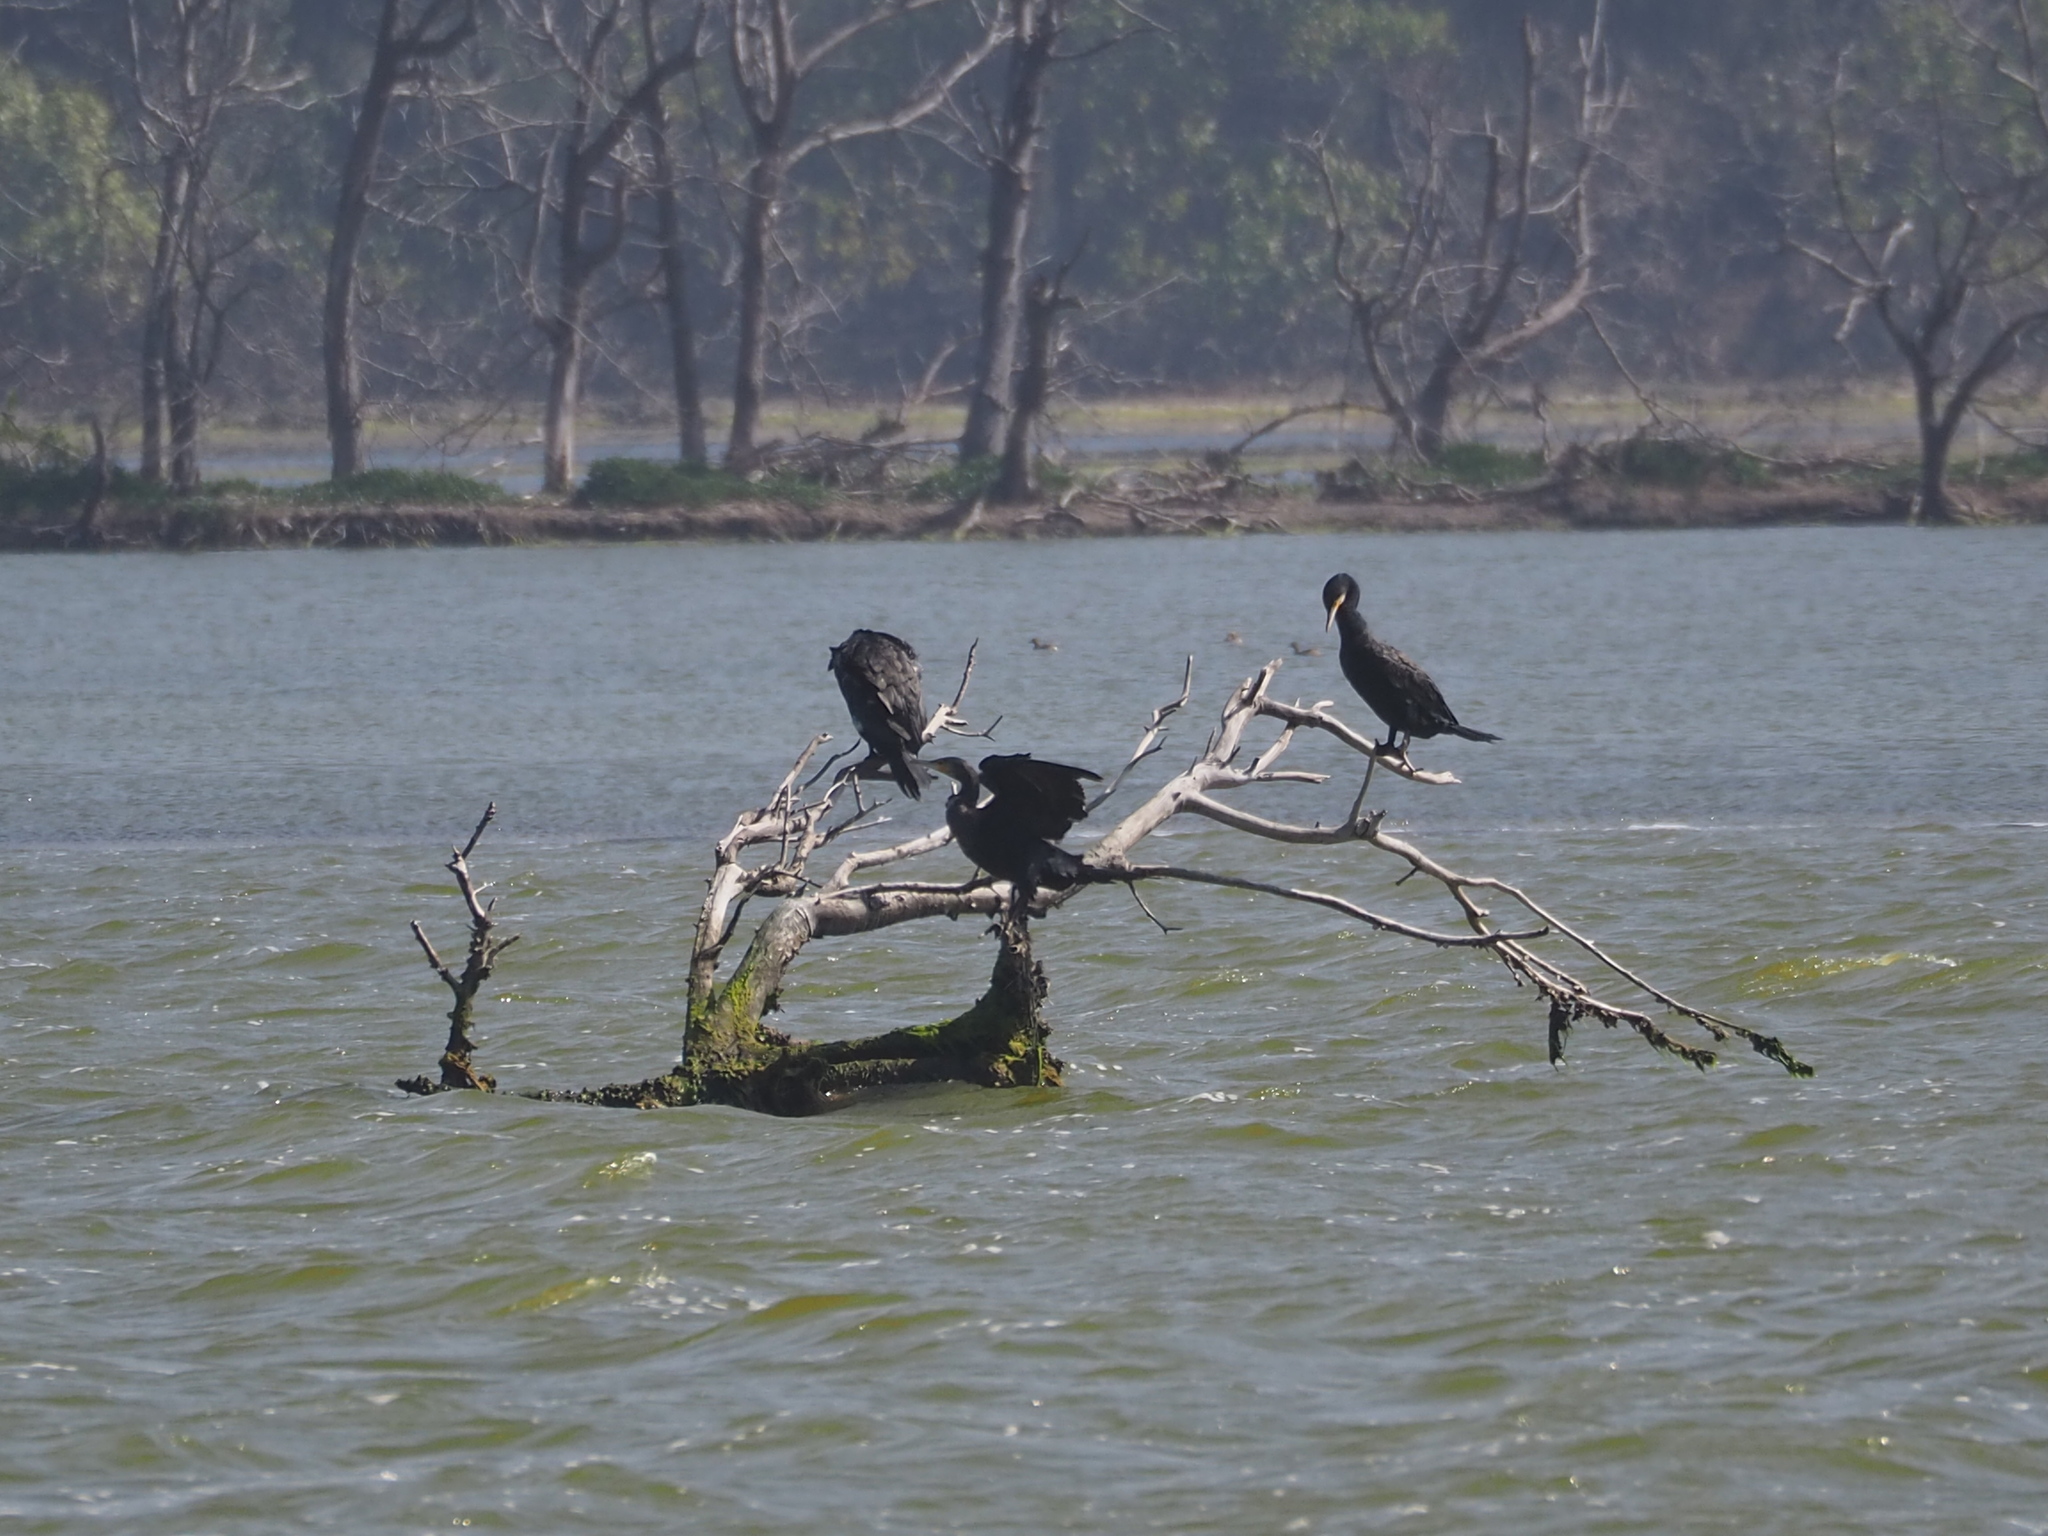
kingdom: Animalia
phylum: Chordata
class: Aves
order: Suliformes
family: Phalacrocoracidae
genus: Phalacrocorax
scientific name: Phalacrocorax carbo
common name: Great cormorant
